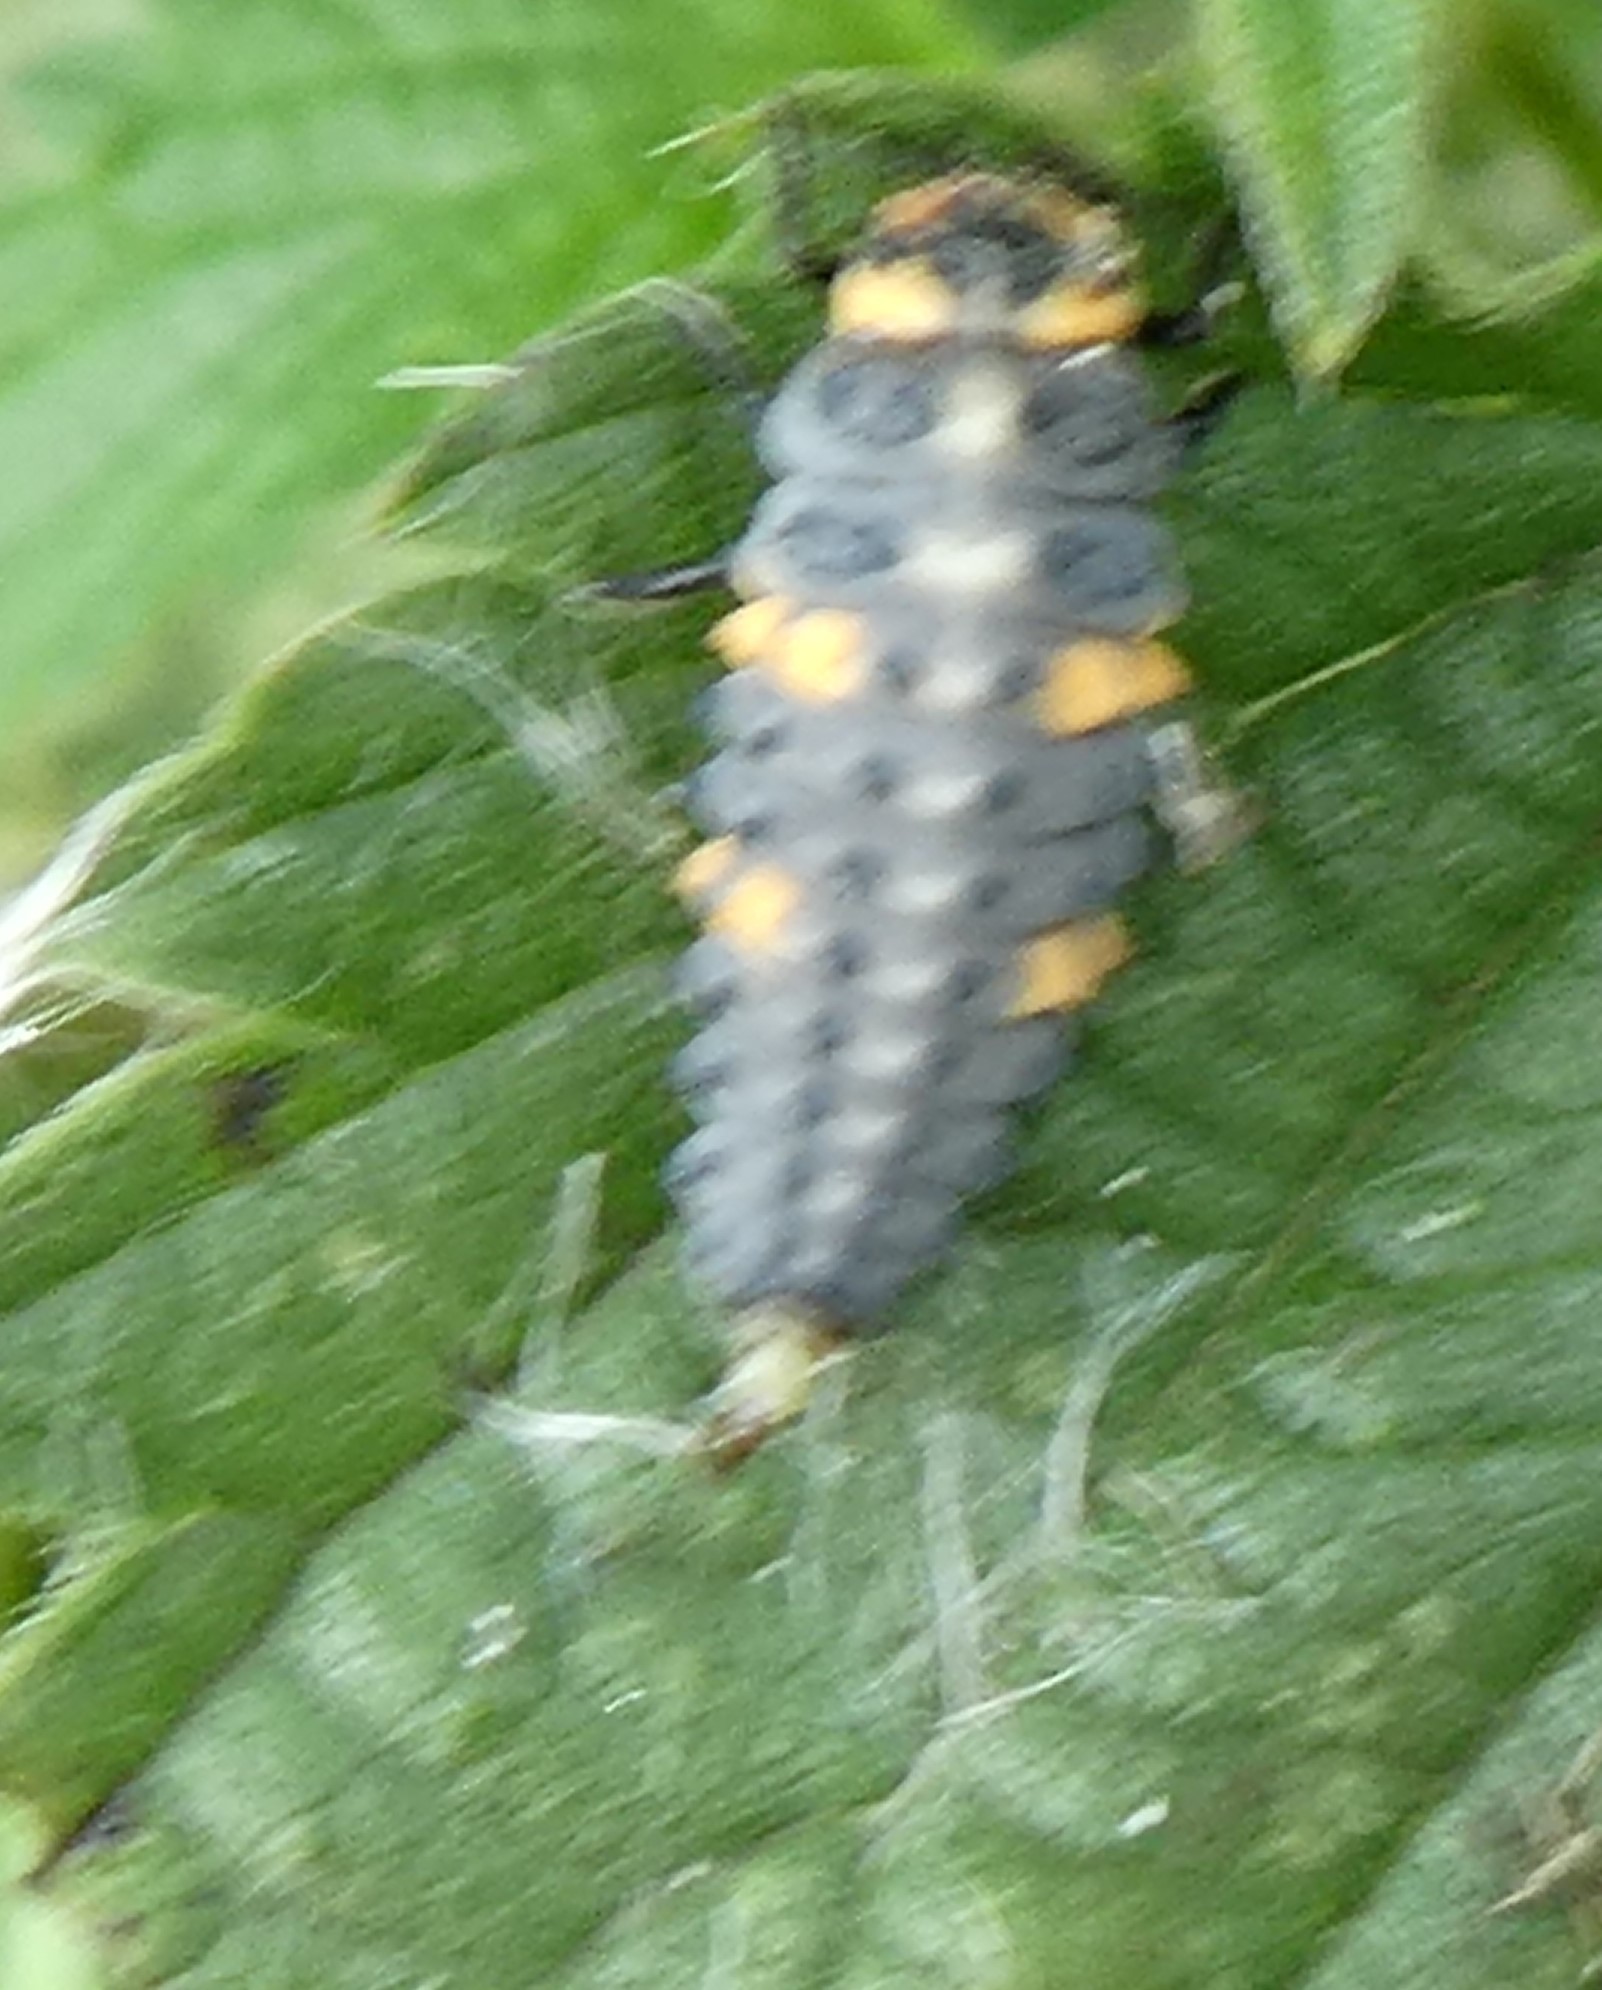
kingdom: Animalia
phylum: Arthropoda
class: Insecta
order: Coleoptera
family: Coccinellidae
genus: Coccinella
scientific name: Coccinella septempunctata
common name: Sevenspotted lady beetle
